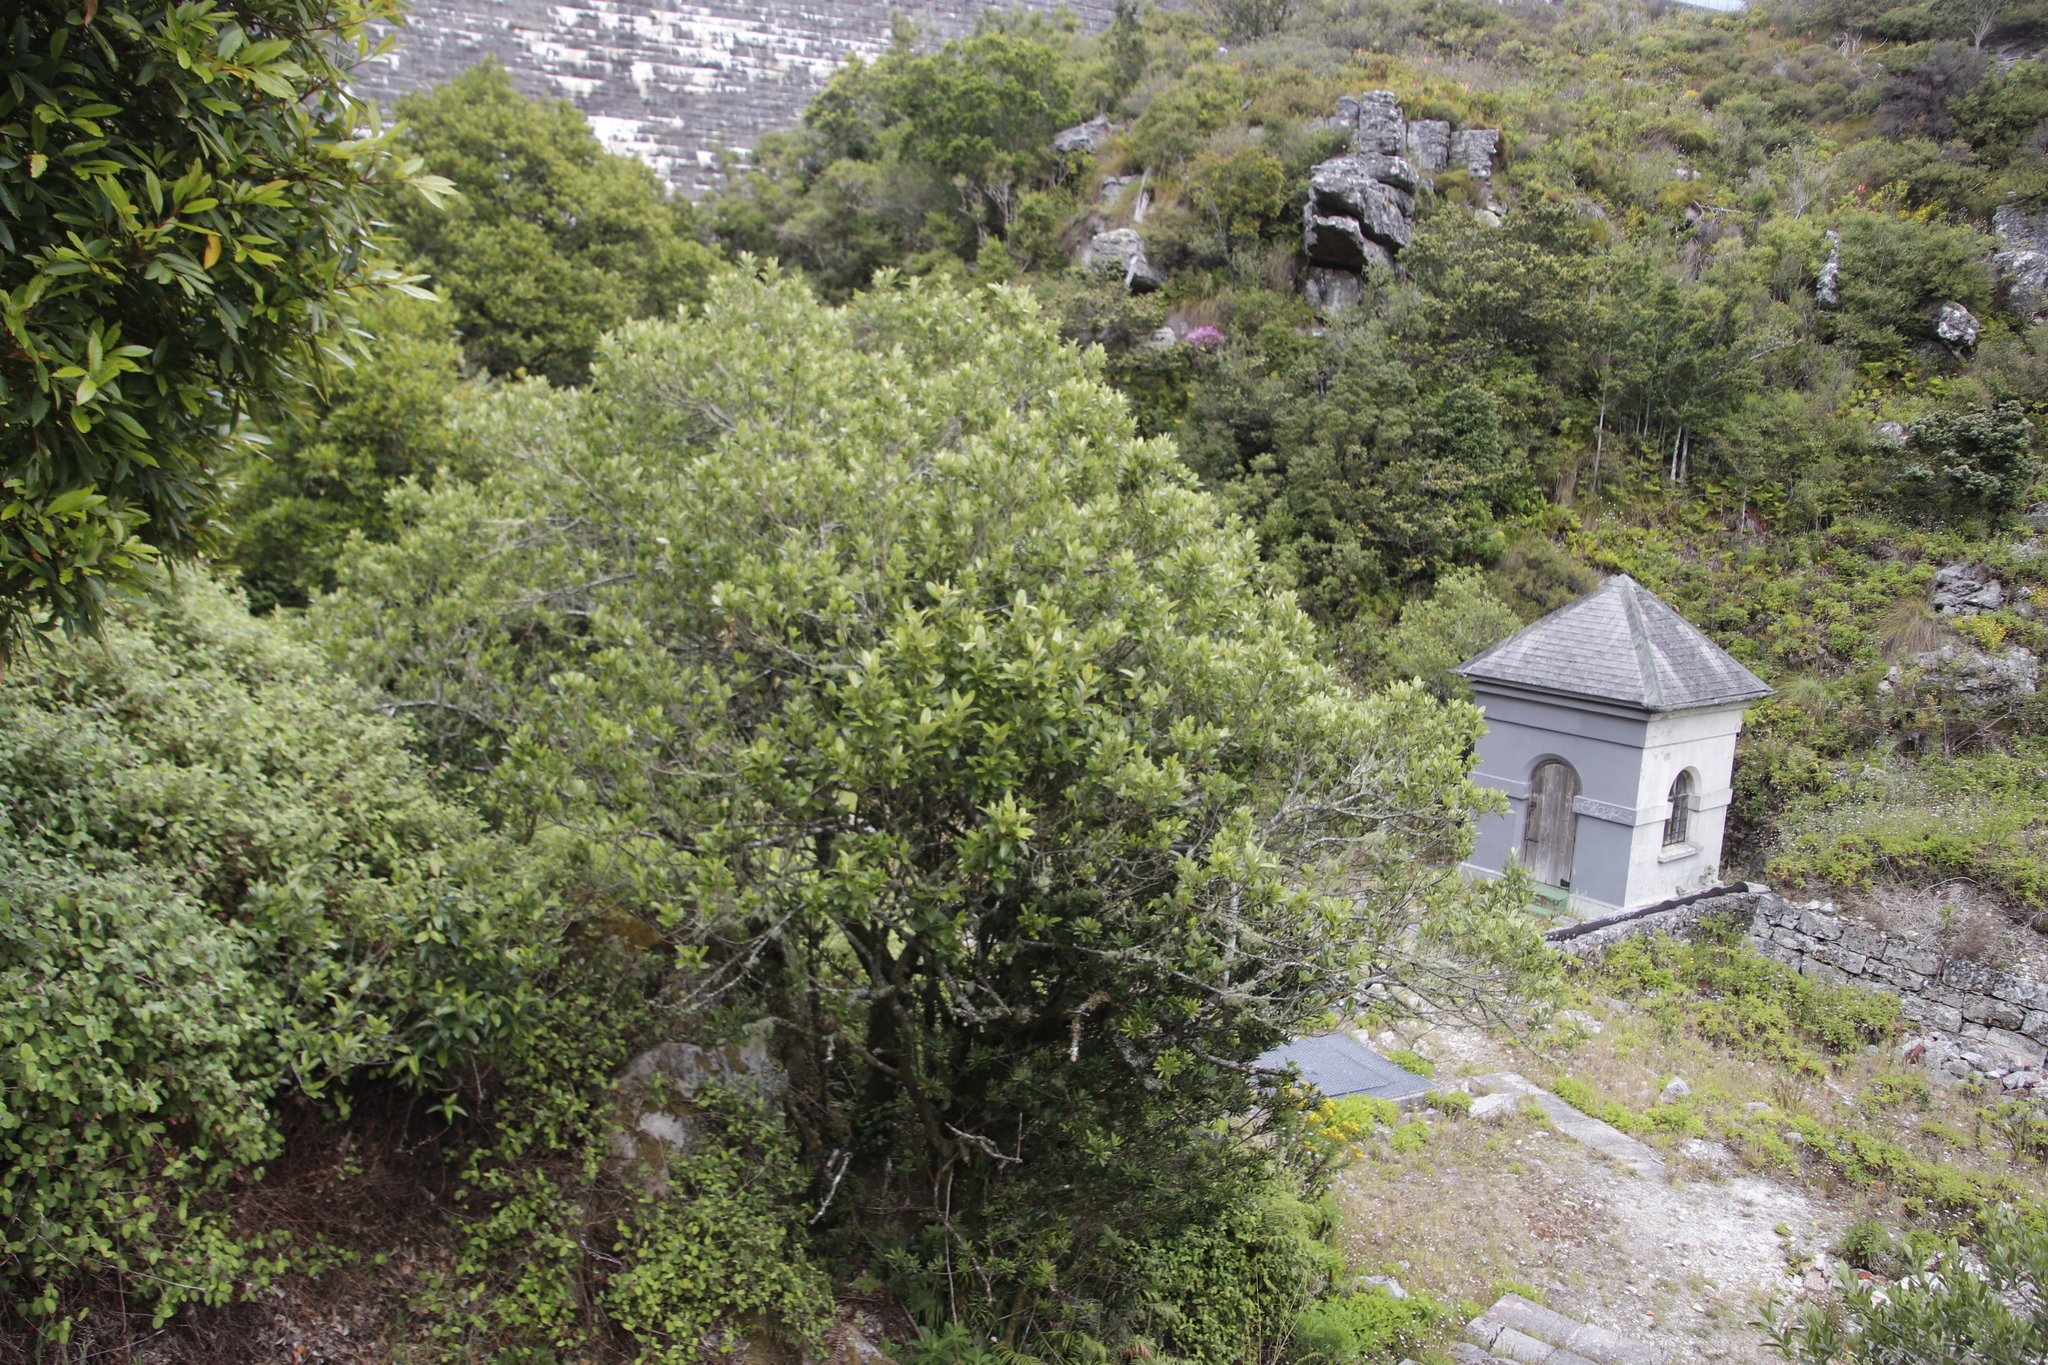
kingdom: Plantae
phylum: Tracheophyta
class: Magnoliopsida
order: Malpighiales
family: Achariaceae
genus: Kiggelaria
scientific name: Kiggelaria africana
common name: Wild peach
